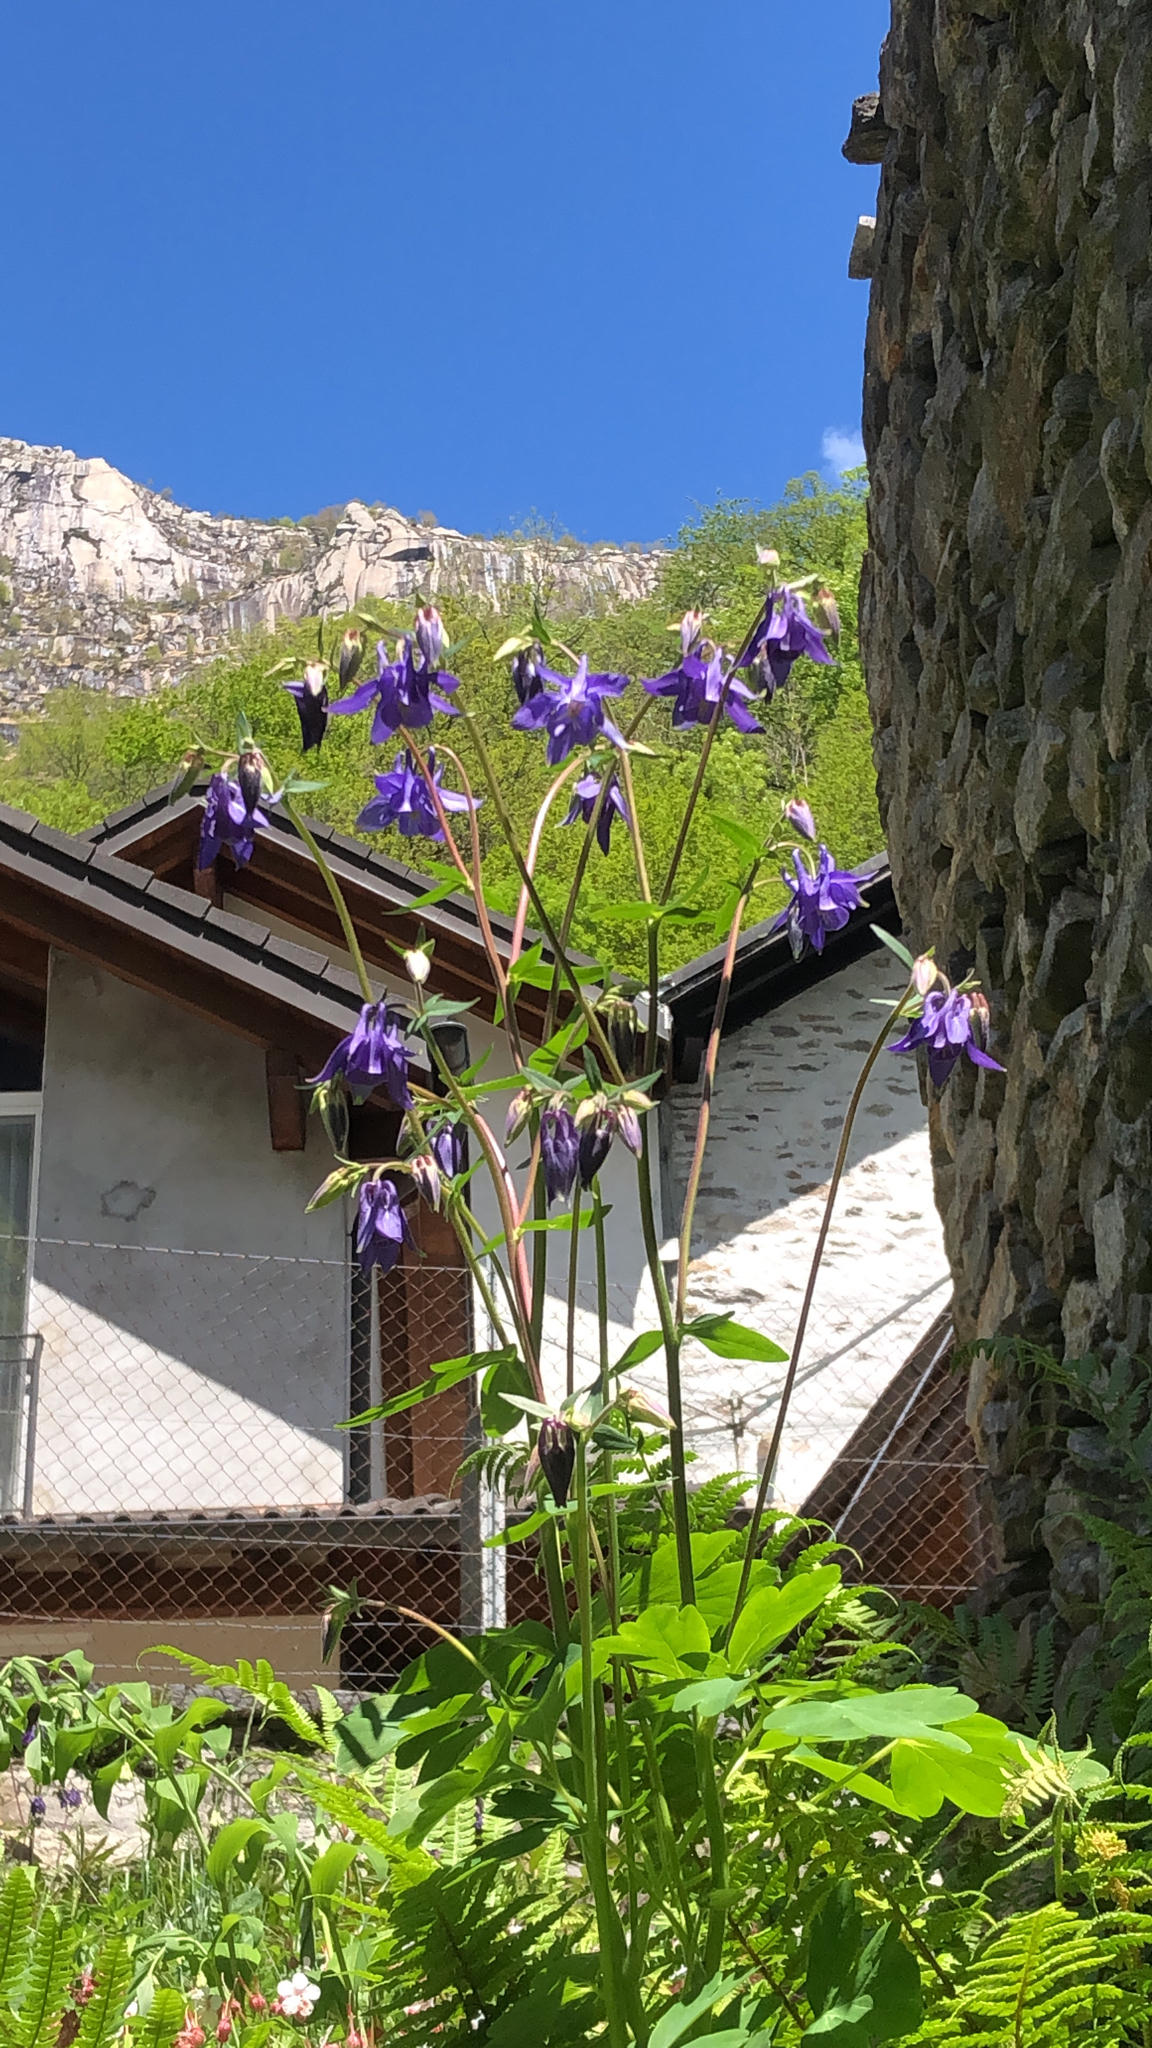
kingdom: Plantae
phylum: Tracheophyta
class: Magnoliopsida
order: Ranunculales
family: Ranunculaceae
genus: Aquilegia
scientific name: Aquilegia vulgaris
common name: Columbine
